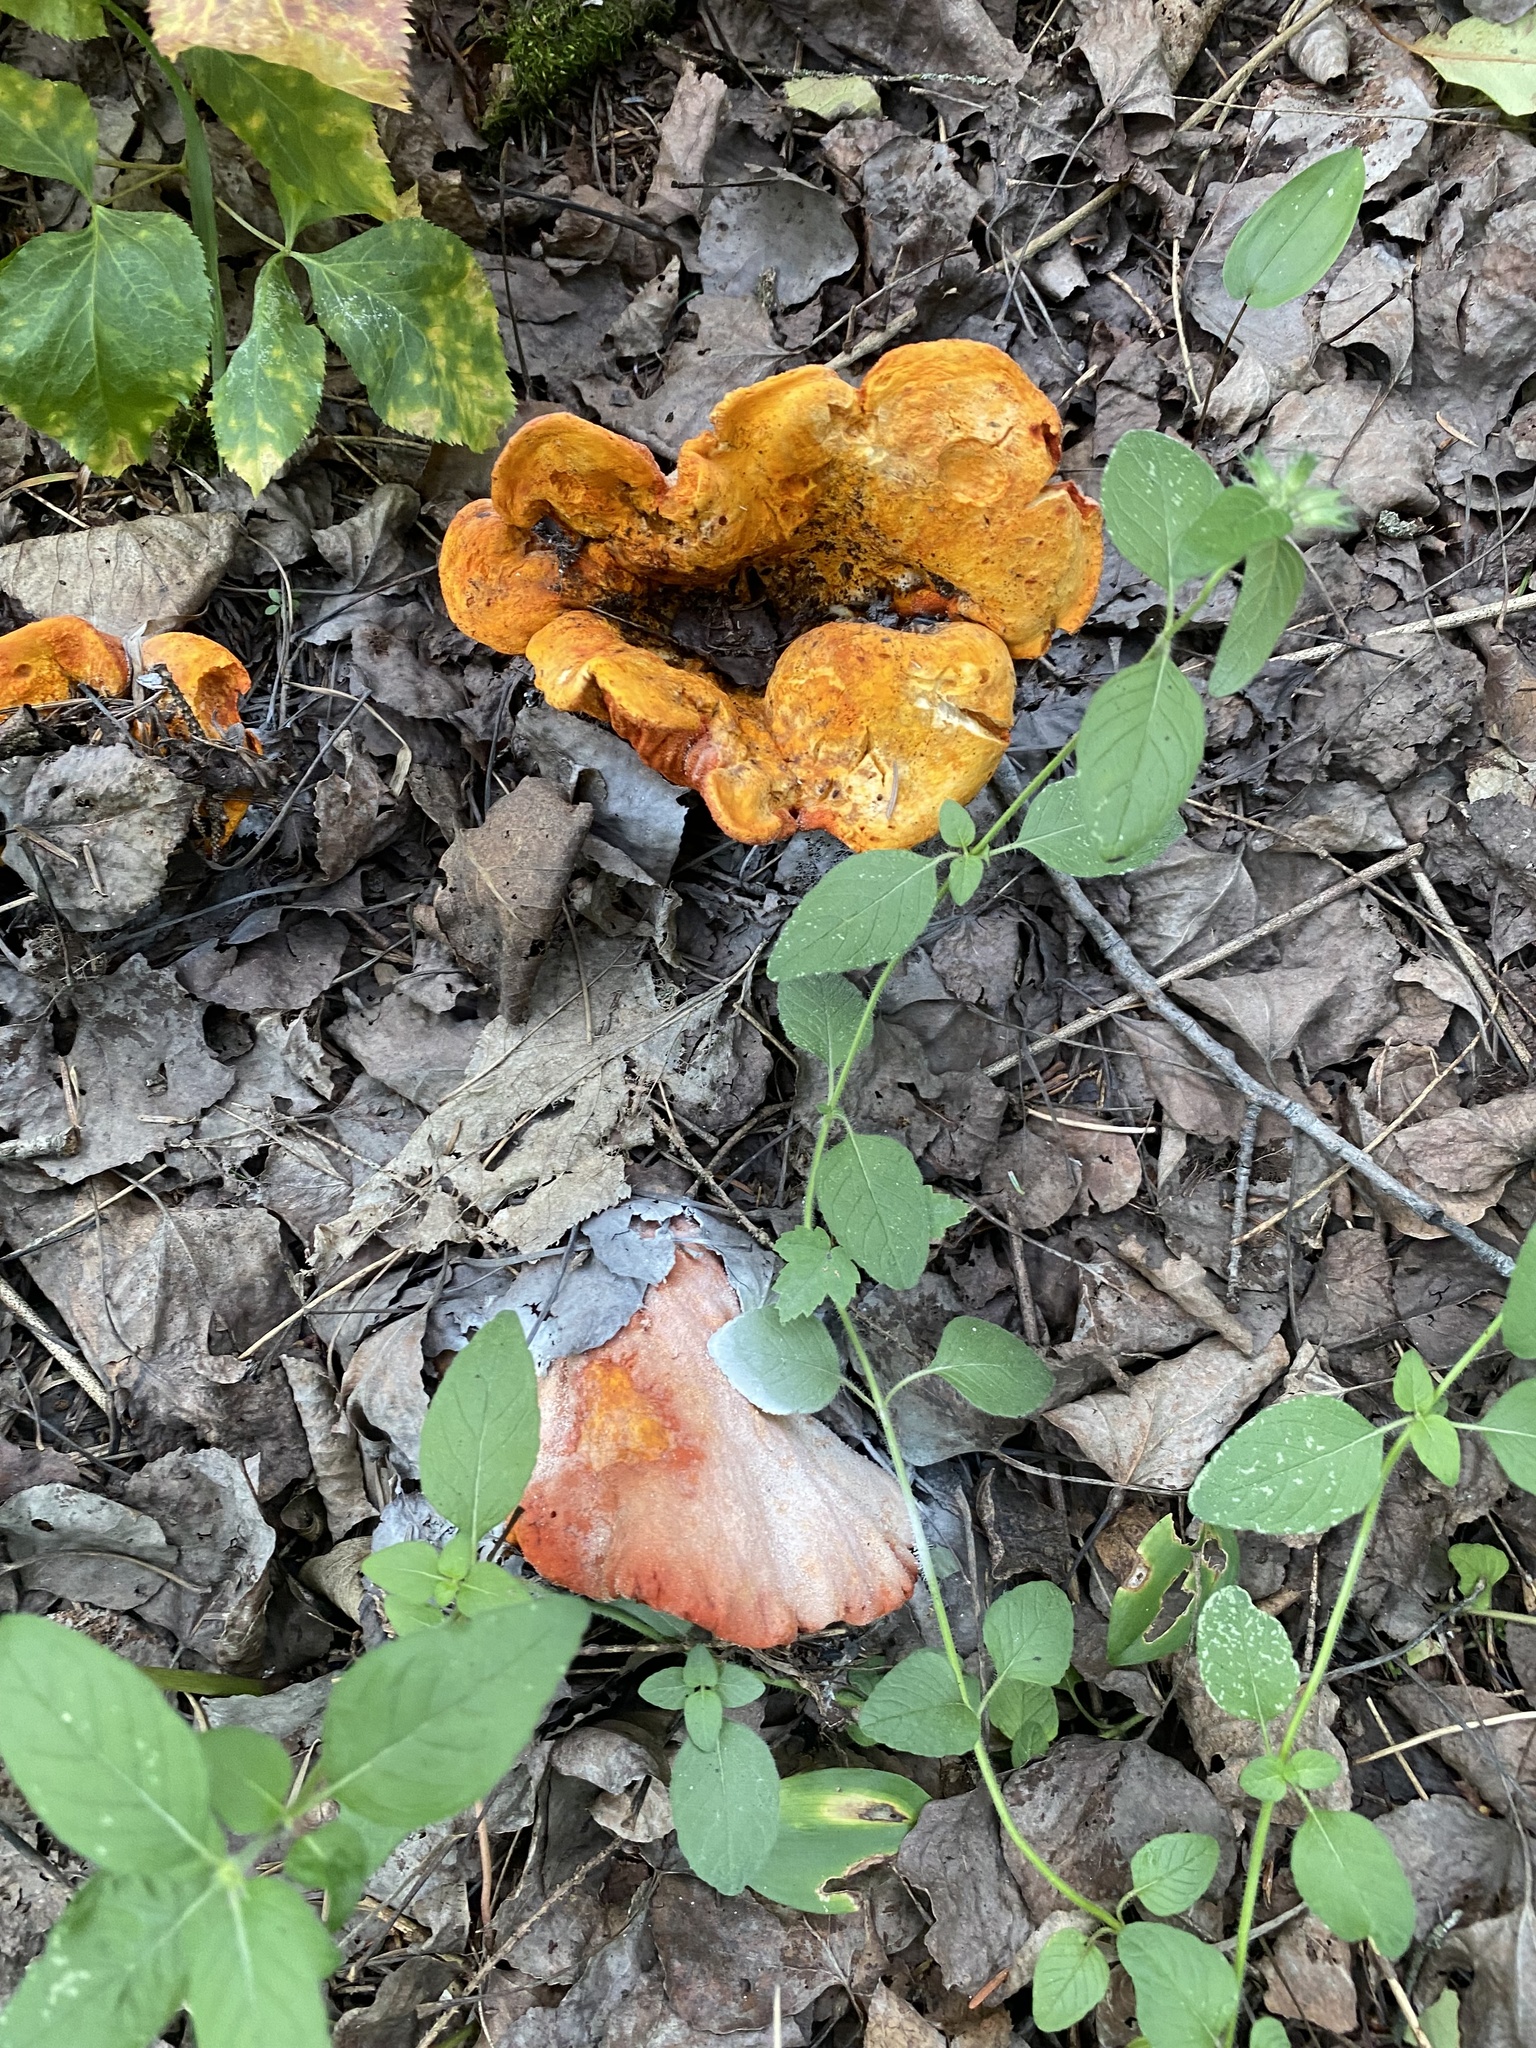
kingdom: Fungi
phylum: Ascomycota
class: Sordariomycetes
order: Hypocreales
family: Hypocreaceae
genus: Hypomyces
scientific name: Hypomyces lactifluorum
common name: Lobster mushroom
